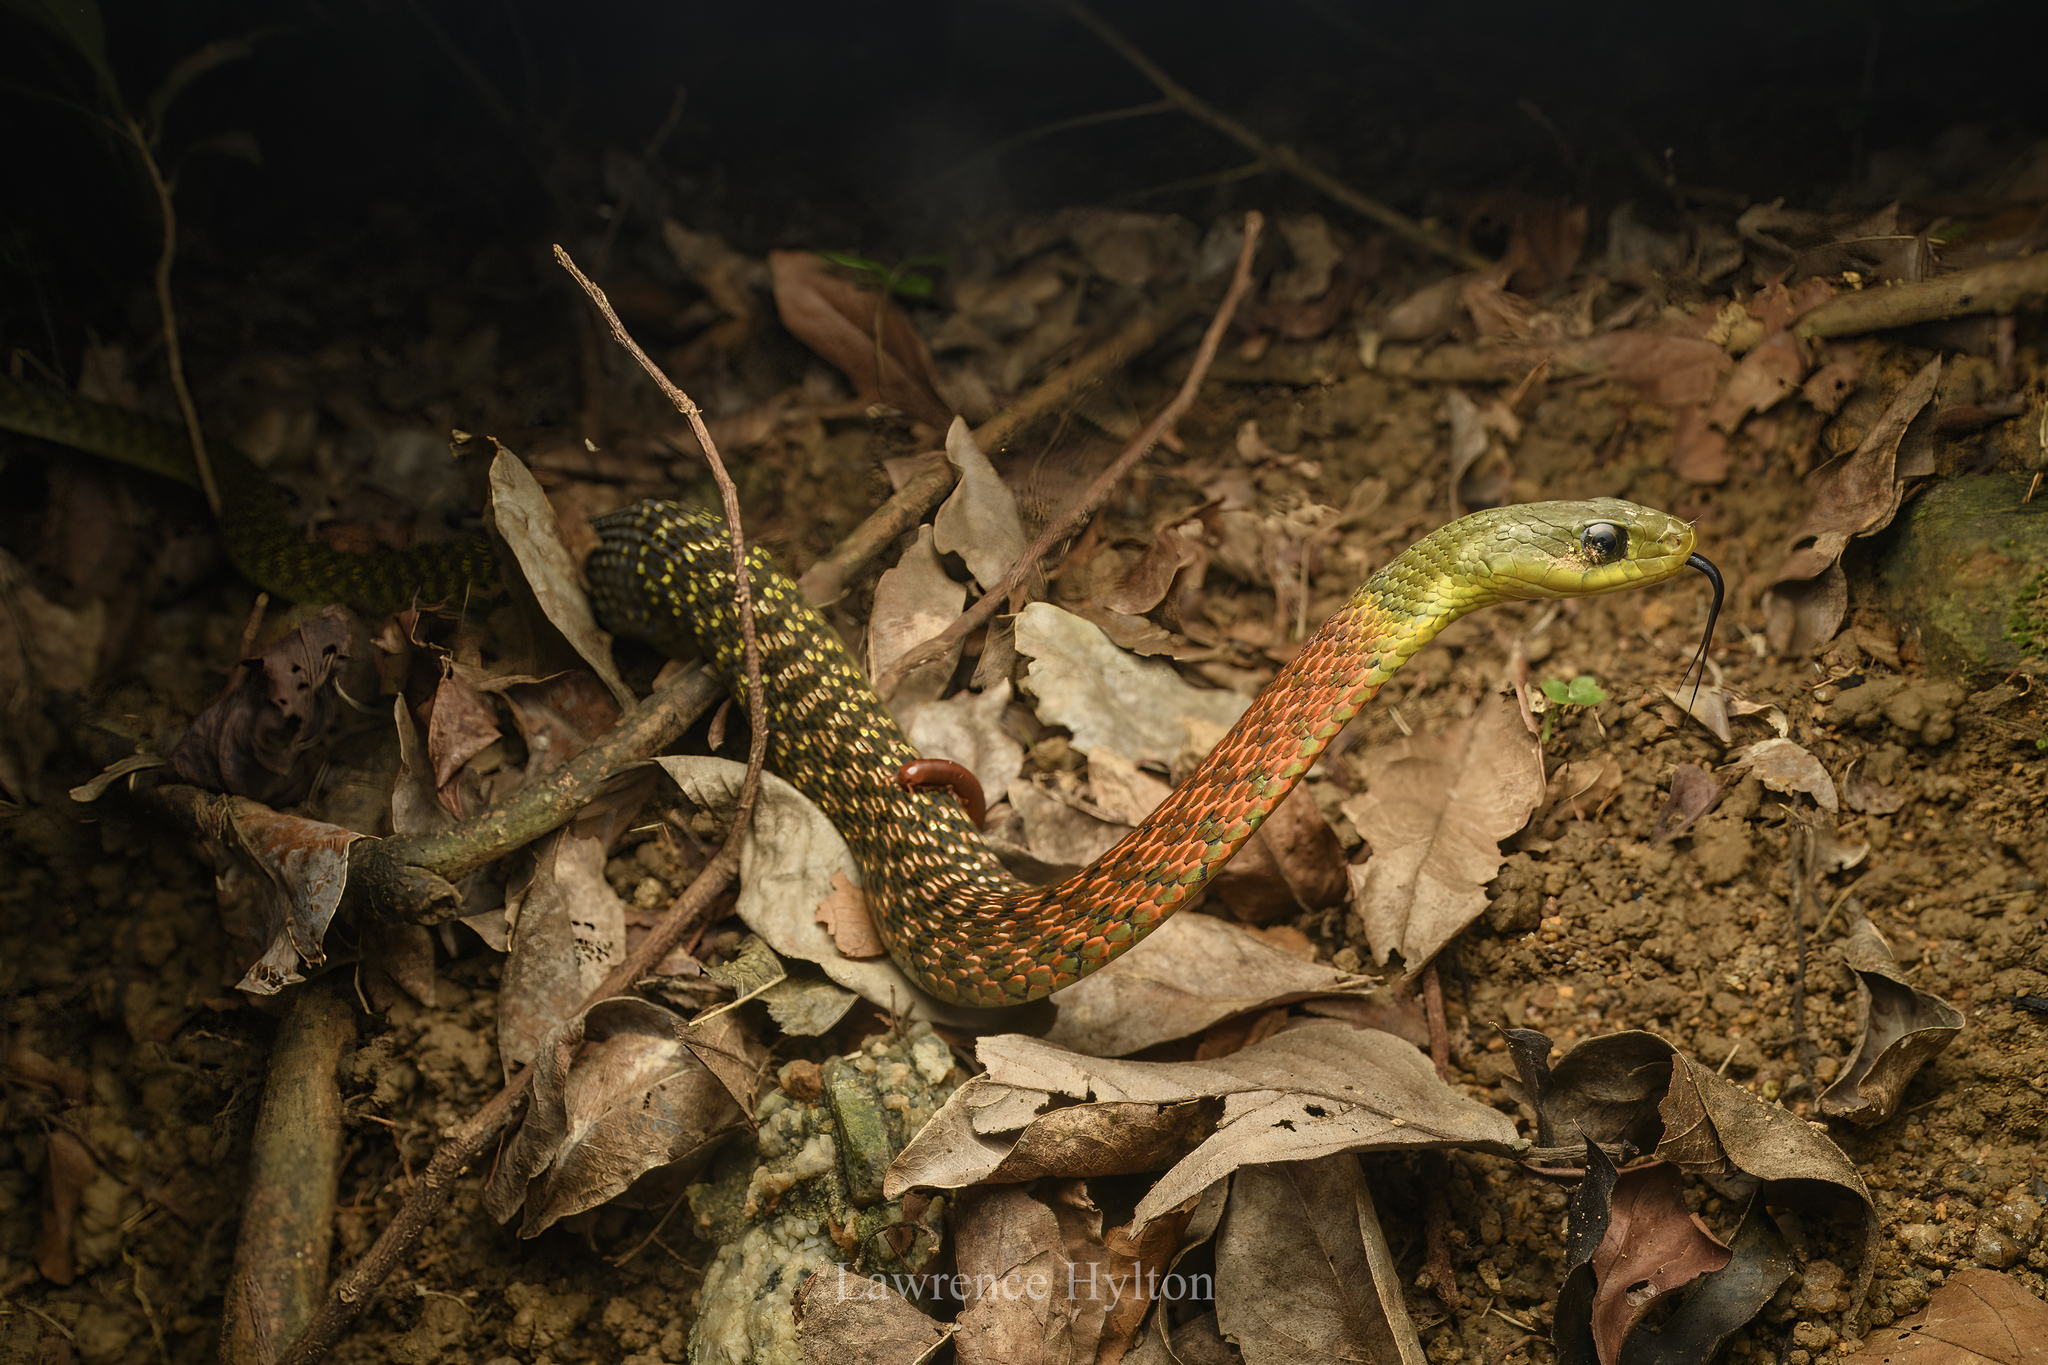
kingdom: Animalia
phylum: Chordata
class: Squamata
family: Colubridae
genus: Rhabdophis
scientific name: Rhabdophis helleri
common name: Heller’s red-necked keelback
